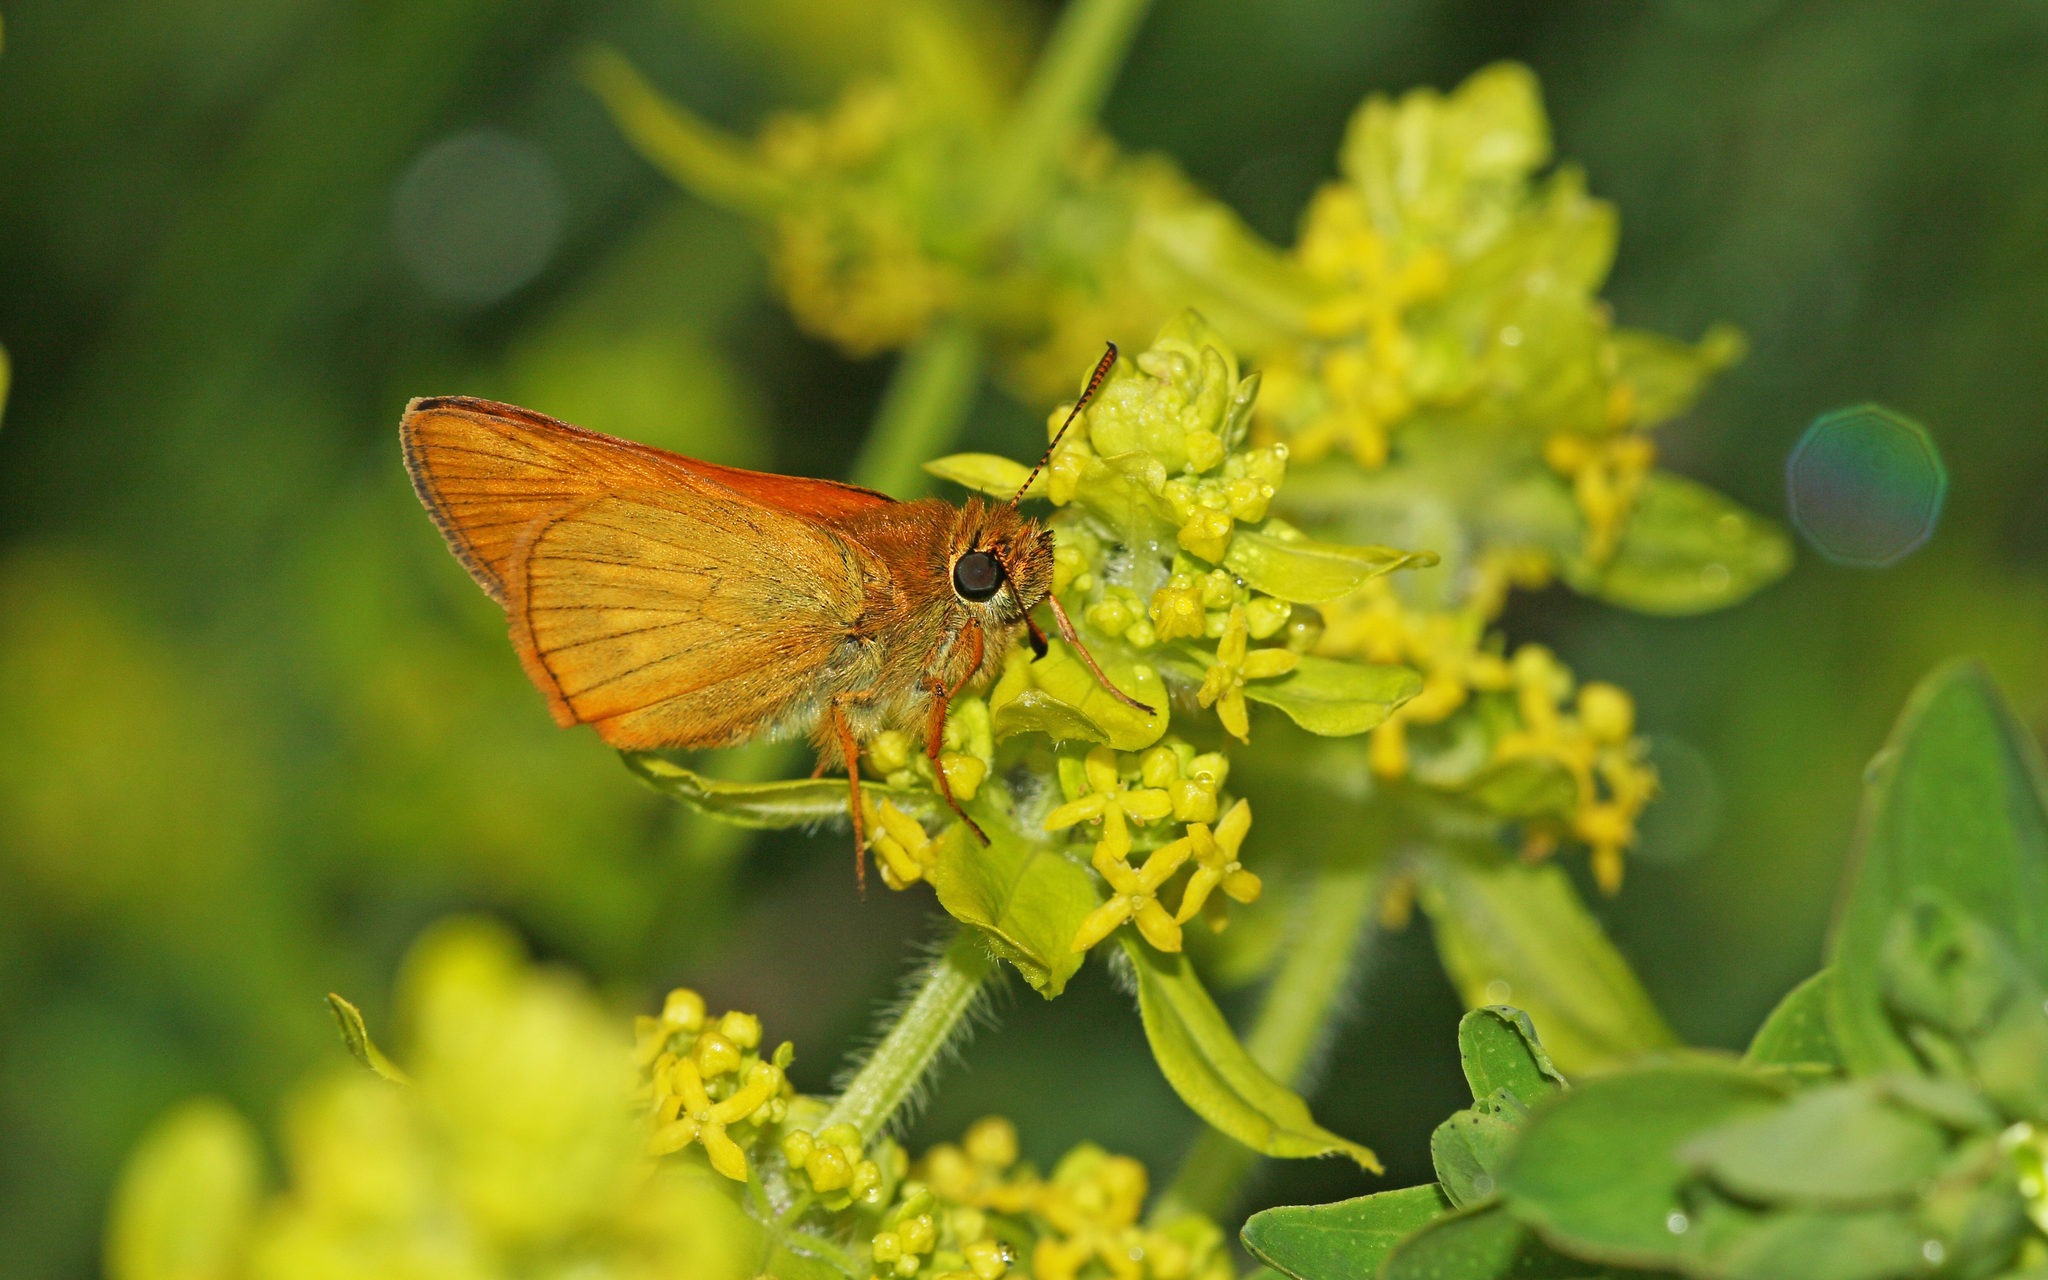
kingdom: Animalia
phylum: Arthropoda
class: Insecta
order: Lepidoptera
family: Hesperiidae
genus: Ochlodes
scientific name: Ochlodes venata
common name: Large skipper
